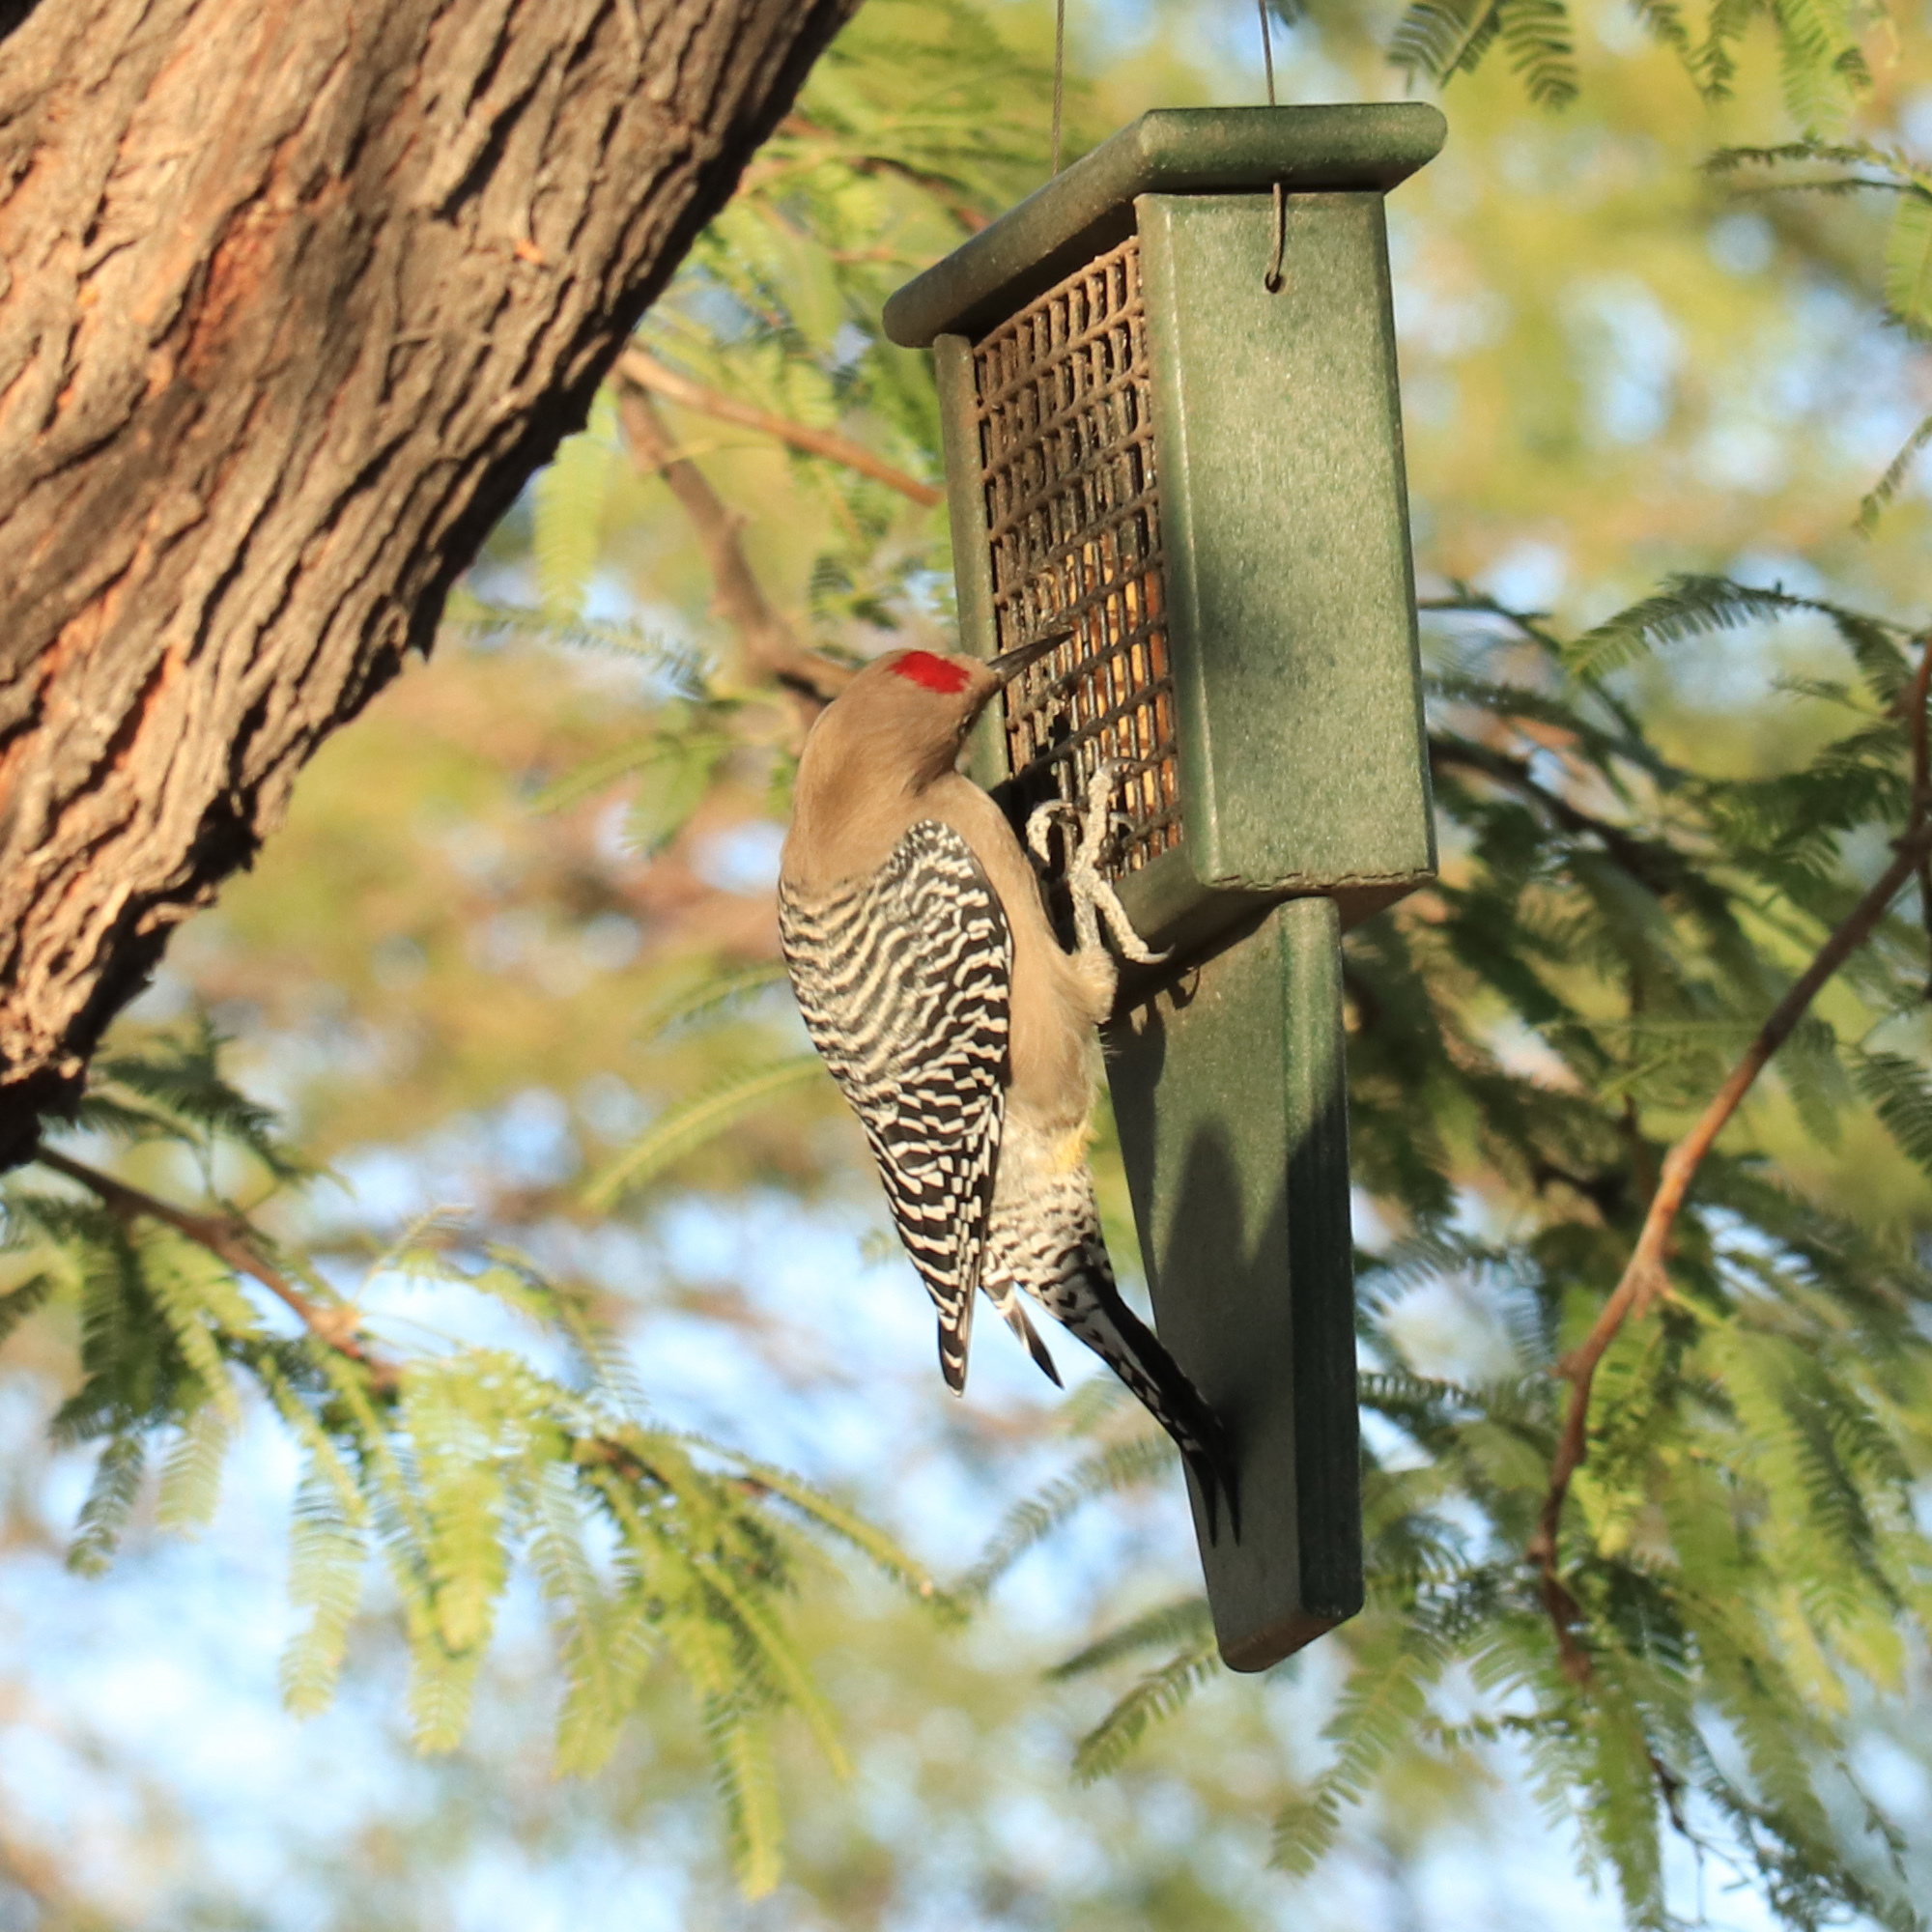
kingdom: Animalia
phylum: Chordata
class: Aves
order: Piciformes
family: Picidae
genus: Melanerpes
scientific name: Melanerpes uropygialis
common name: Gila woodpecker
